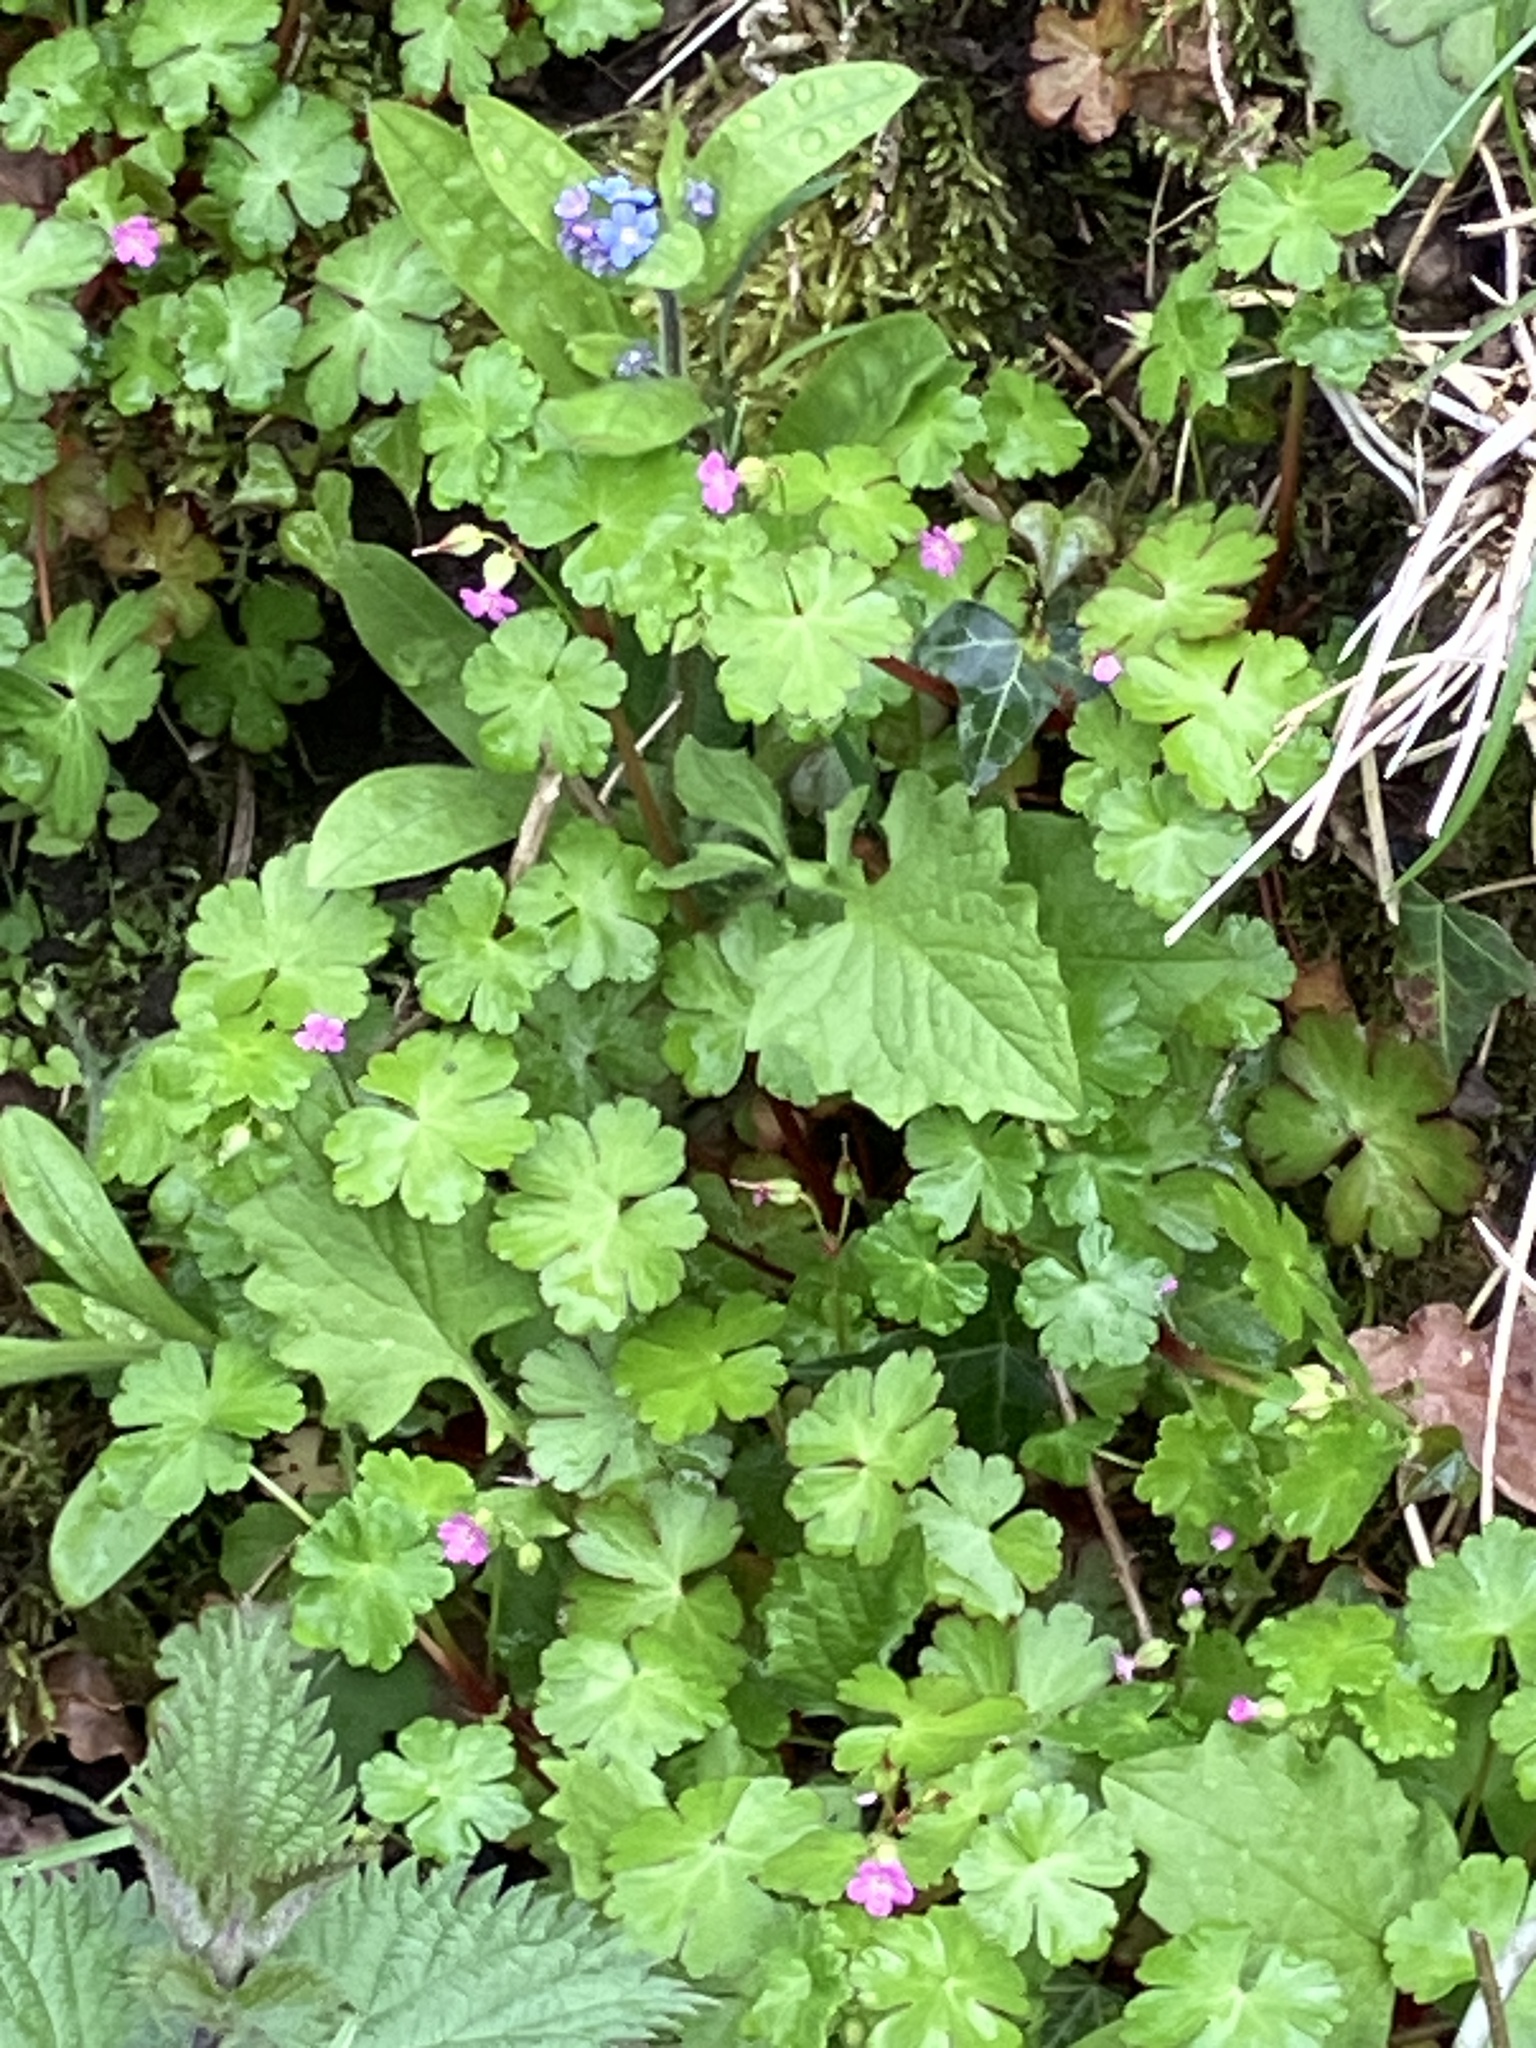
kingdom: Plantae
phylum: Tracheophyta
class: Magnoliopsida
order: Geraniales
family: Geraniaceae
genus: Geranium
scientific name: Geranium lucidum
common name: Shining crane's-bill
